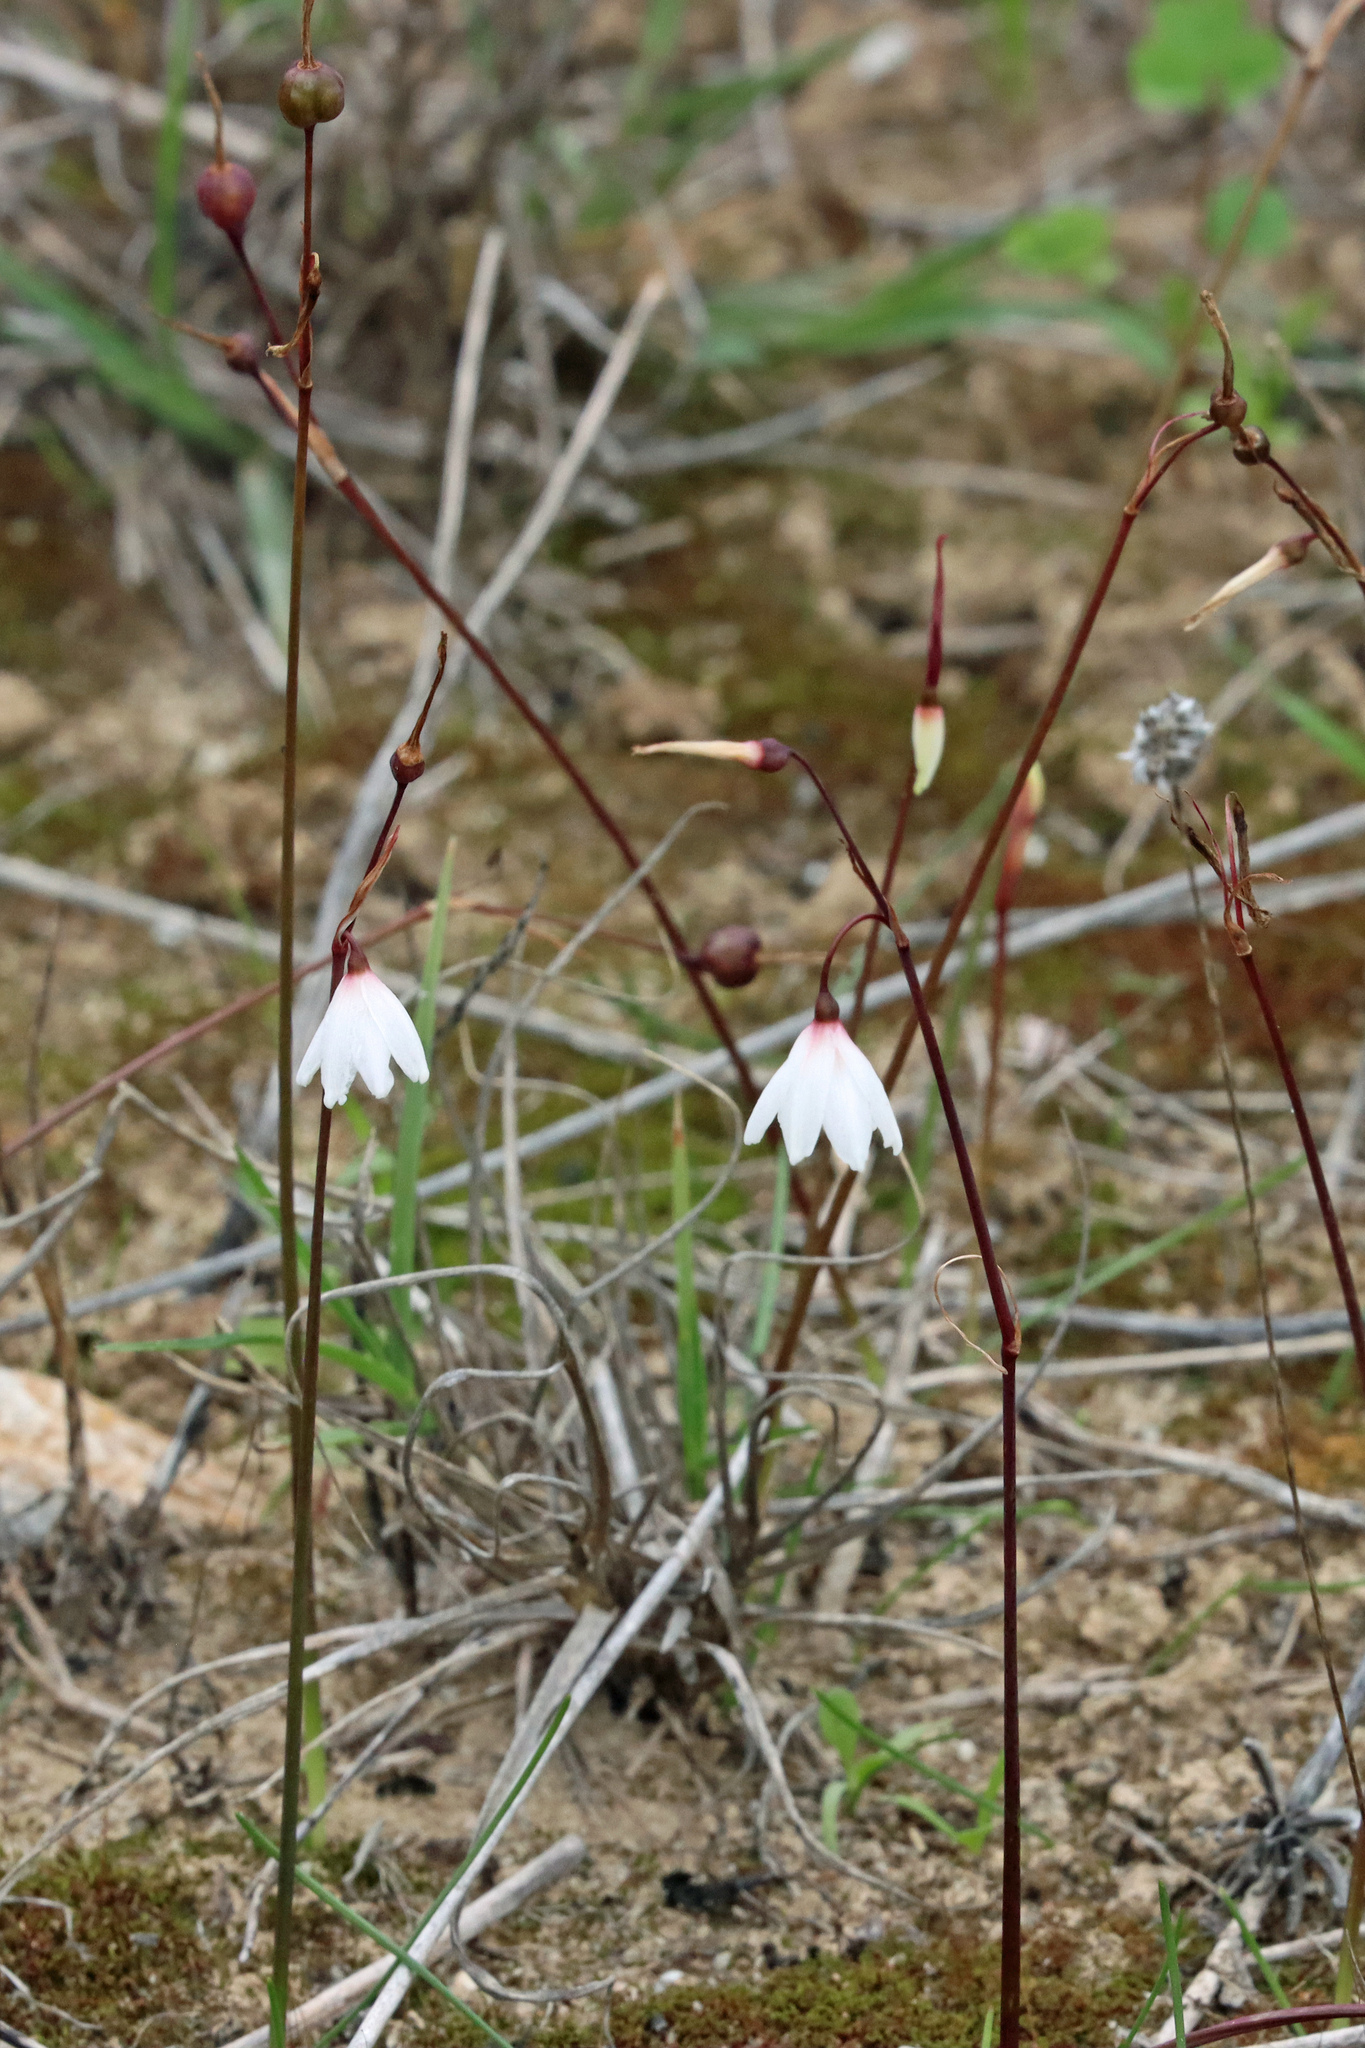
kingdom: Plantae
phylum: Tracheophyta
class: Liliopsida
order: Asparagales
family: Amaryllidaceae
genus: Acis
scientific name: Acis autumnalis
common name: Autumn snowflake
